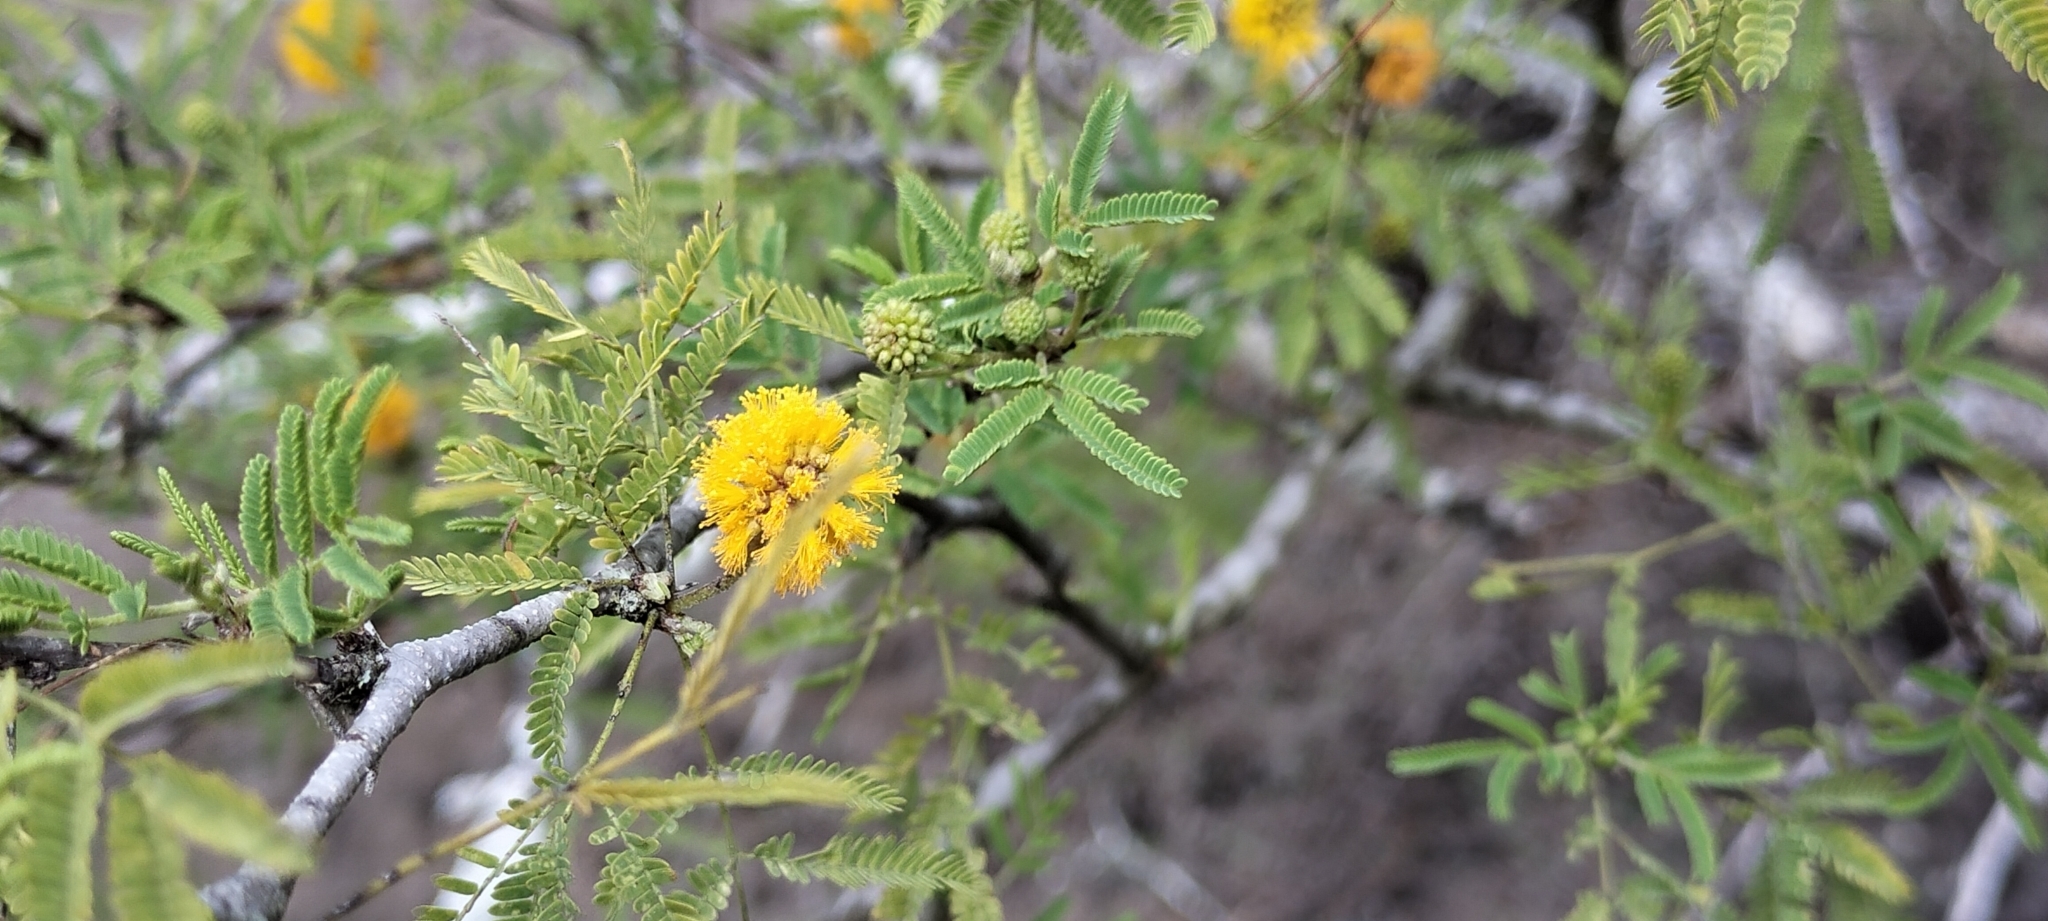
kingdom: Plantae
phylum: Tracheophyta
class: Magnoliopsida
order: Fabales
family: Fabaceae
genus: Vachellia
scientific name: Vachellia farnesiana
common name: Sweet acacia
